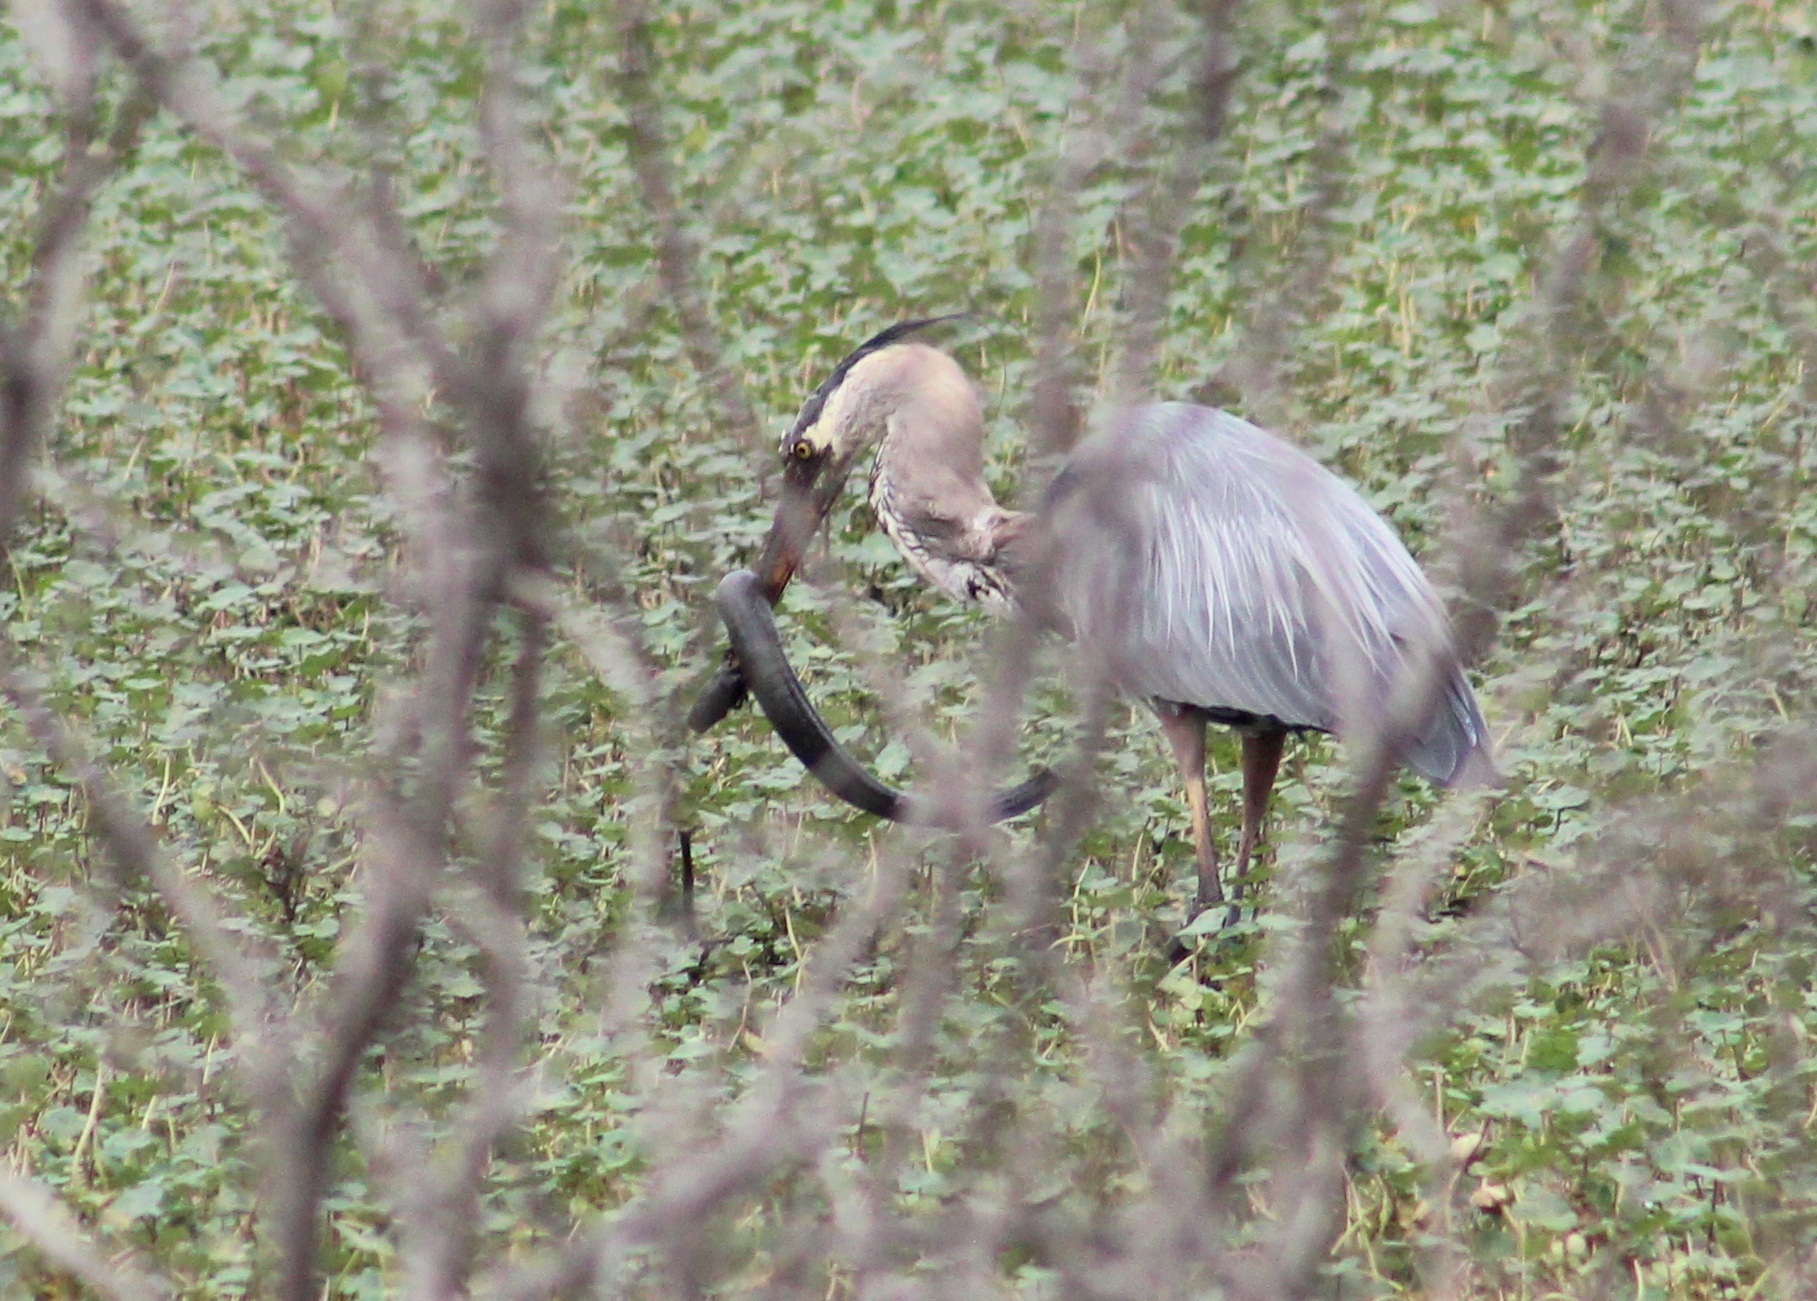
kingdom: Animalia
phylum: Chordata
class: Aves
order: Pelecaniformes
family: Ardeidae
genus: Ardea
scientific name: Ardea herodias
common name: Great blue heron
